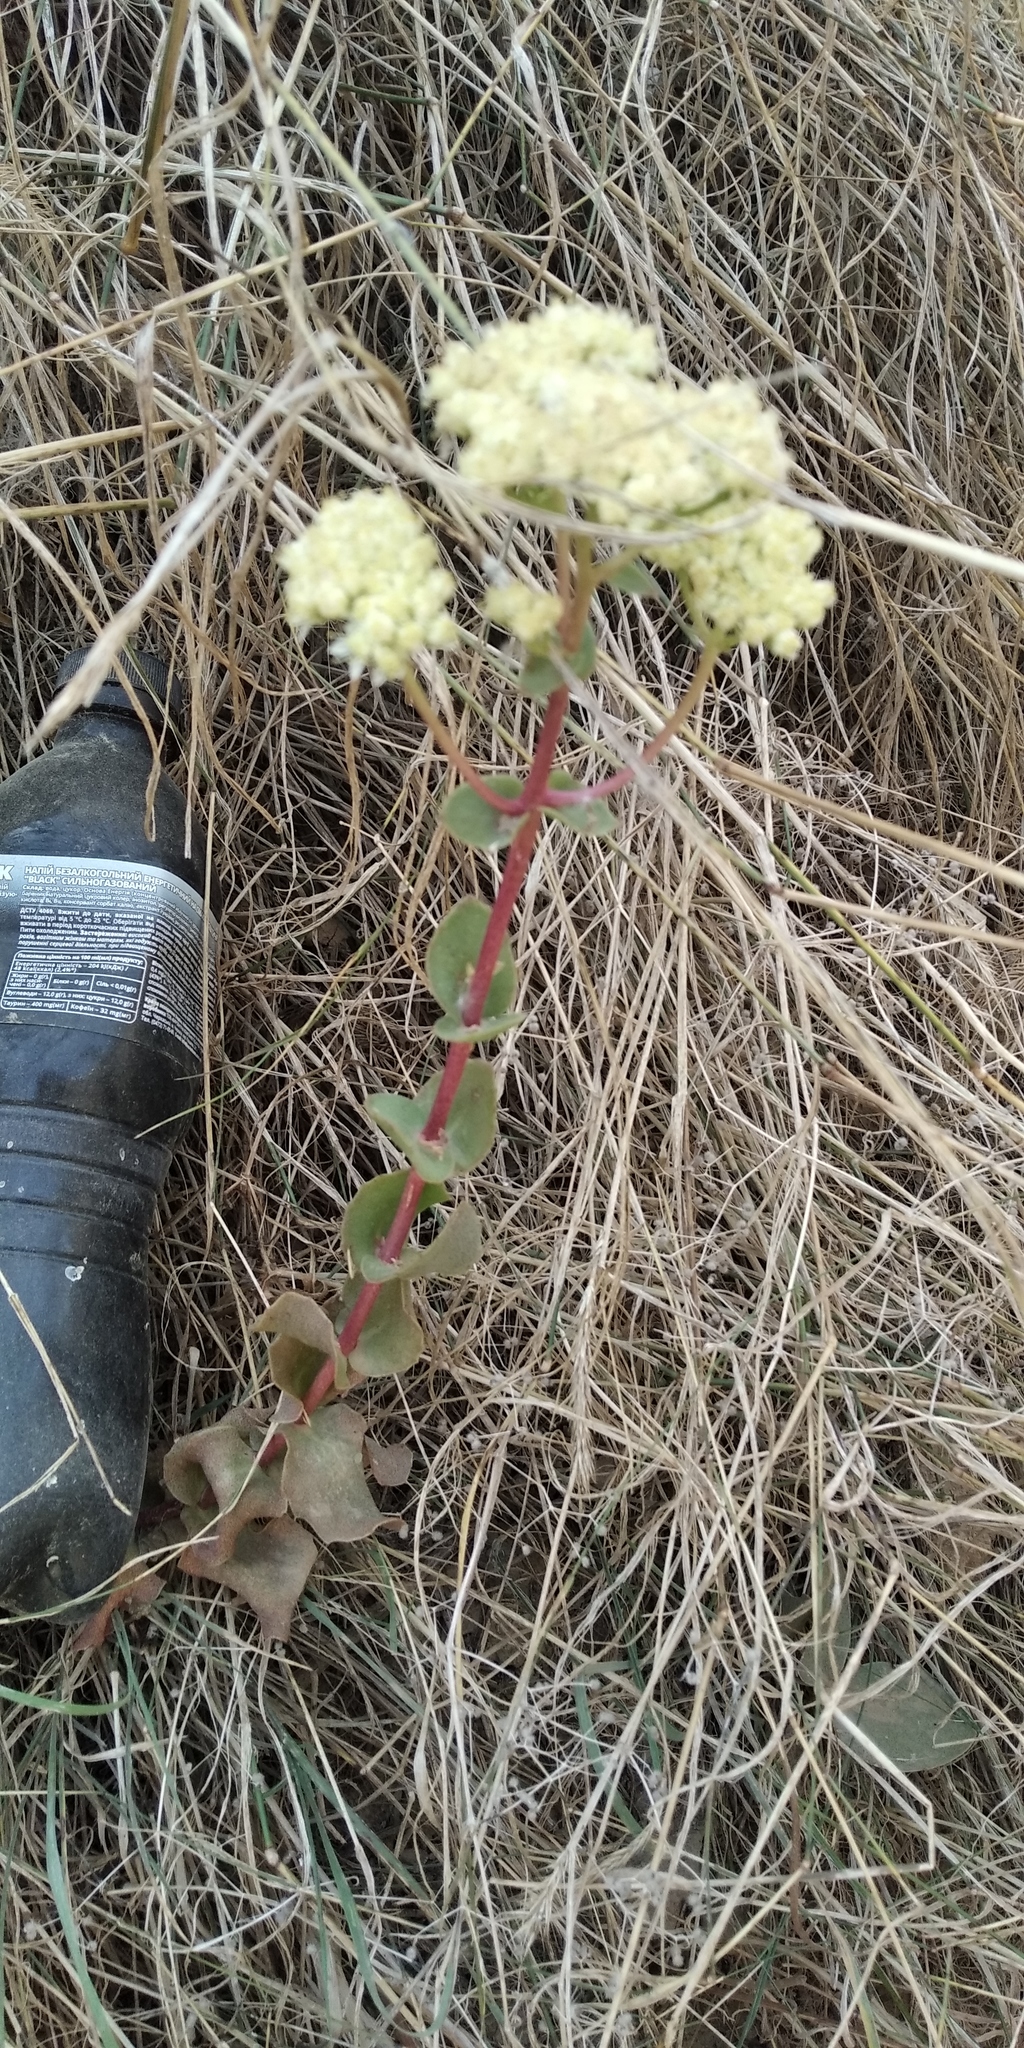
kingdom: Plantae
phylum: Tracheophyta
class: Magnoliopsida
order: Saxifragales
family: Crassulaceae
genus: Hylotelephium
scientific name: Hylotelephium maximum
